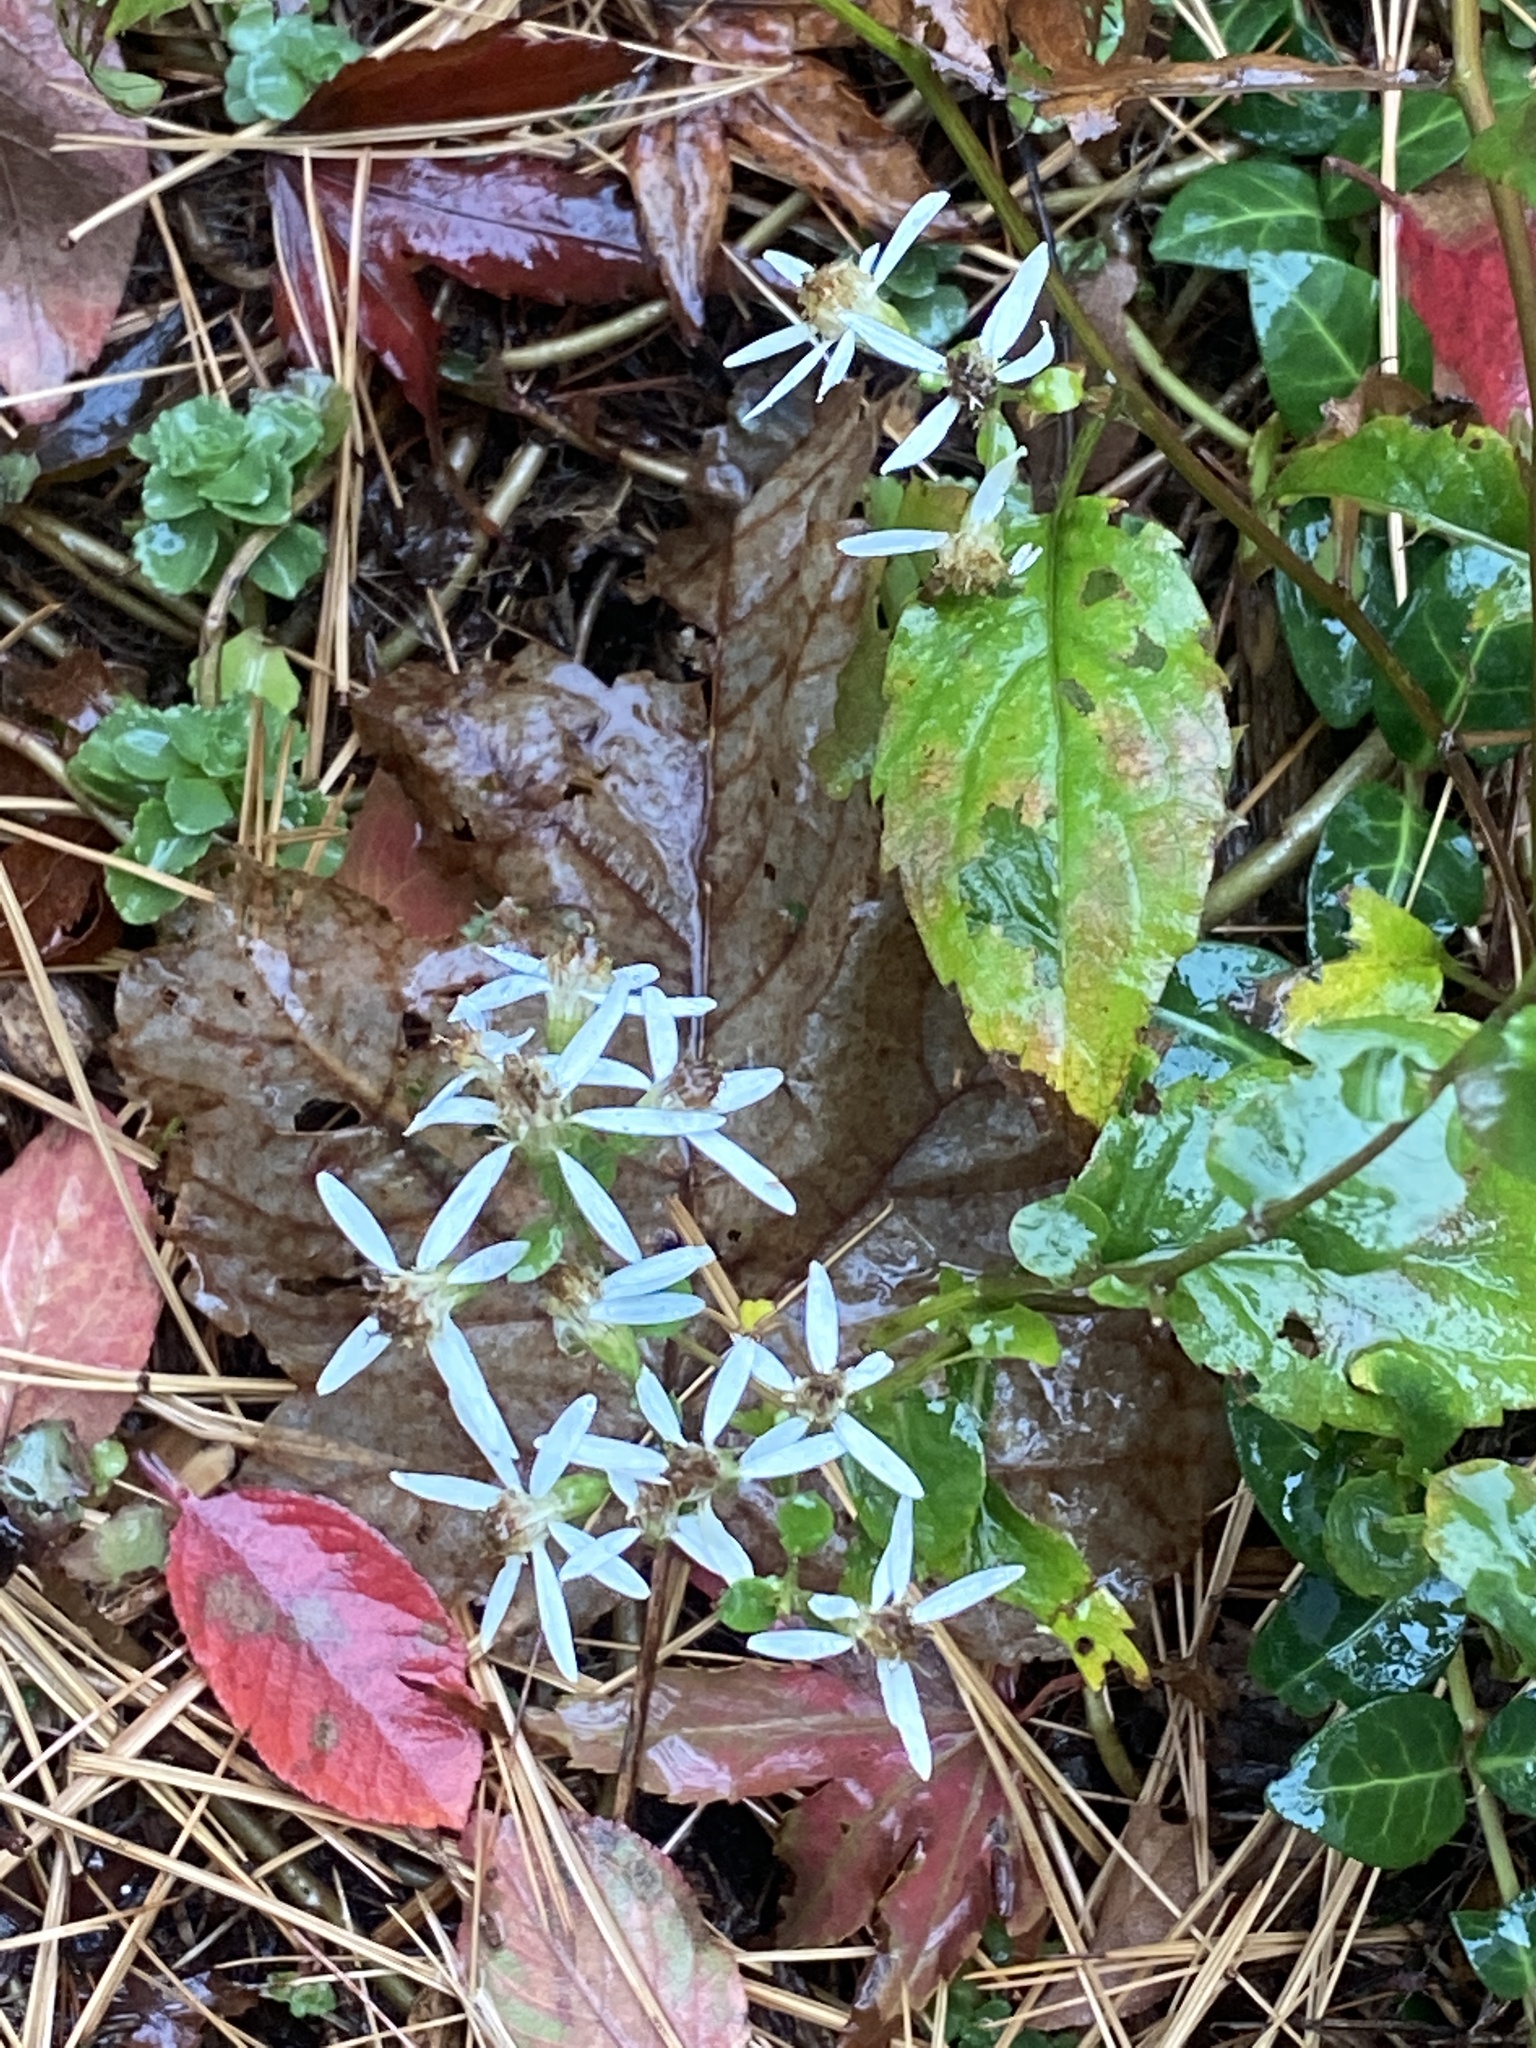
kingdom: Plantae
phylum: Tracheophyta
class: Magnoliopsida
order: Asterales
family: Asteraceae
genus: Eurybia
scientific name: Eurybia divaricata
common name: White wood aster
